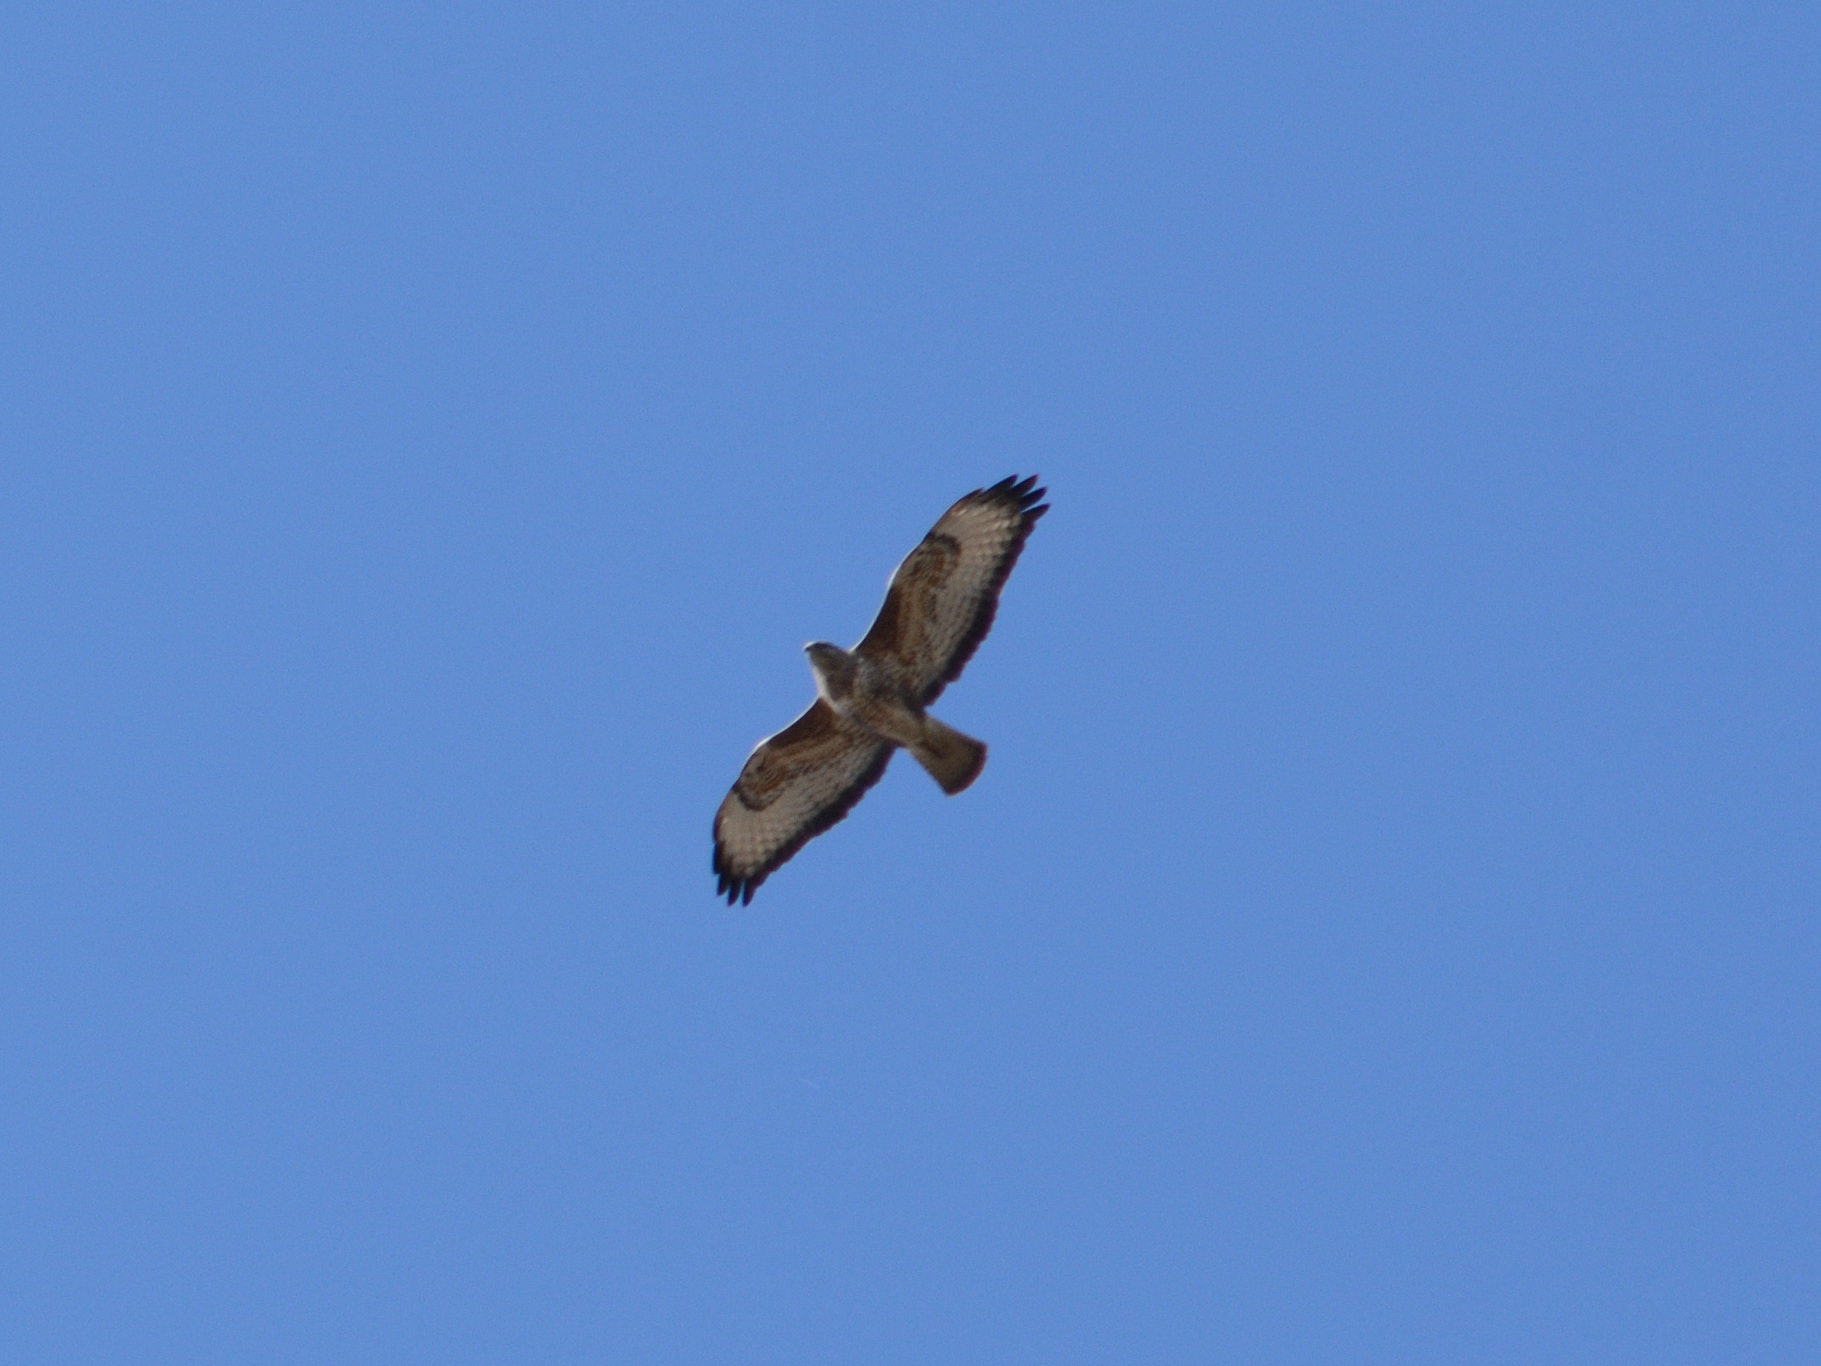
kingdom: Animalia
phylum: Chordata
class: Aves
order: Accipitriformes
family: Accipitridae
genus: Buteo
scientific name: Buteo buteo
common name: Common buzzard
